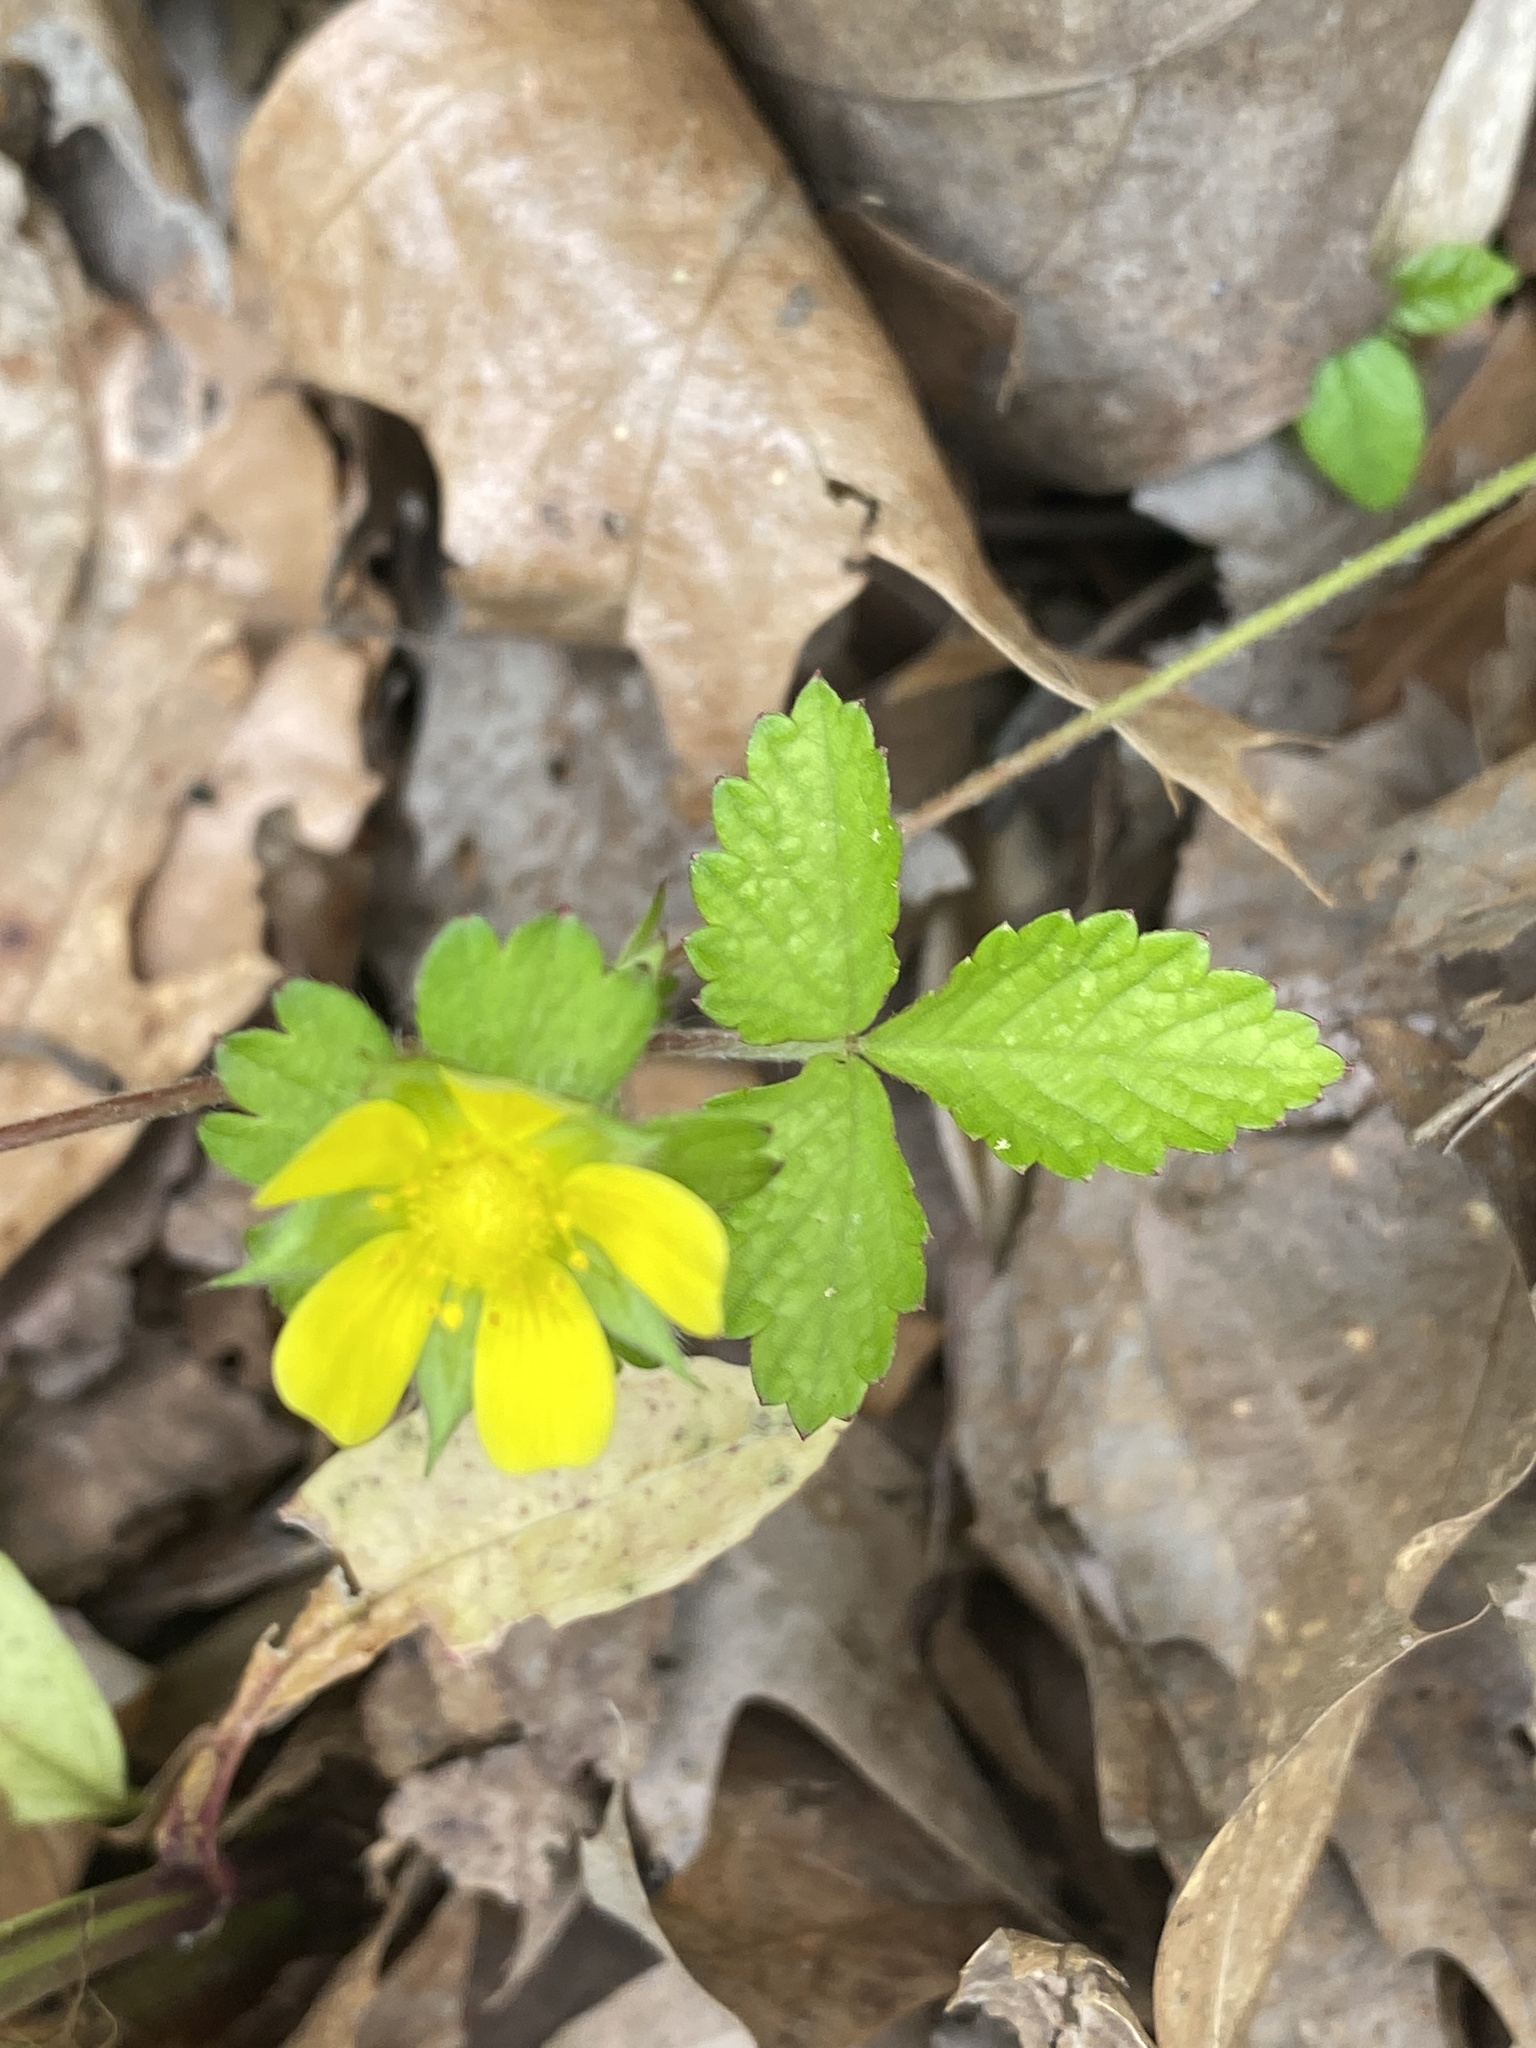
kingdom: Plantae
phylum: Tracheophyta
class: Magnoliopsida
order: Rosales
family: Rosaceae
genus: Potentilla
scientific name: Potentilla indica
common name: Yellow-flowered strawberry
